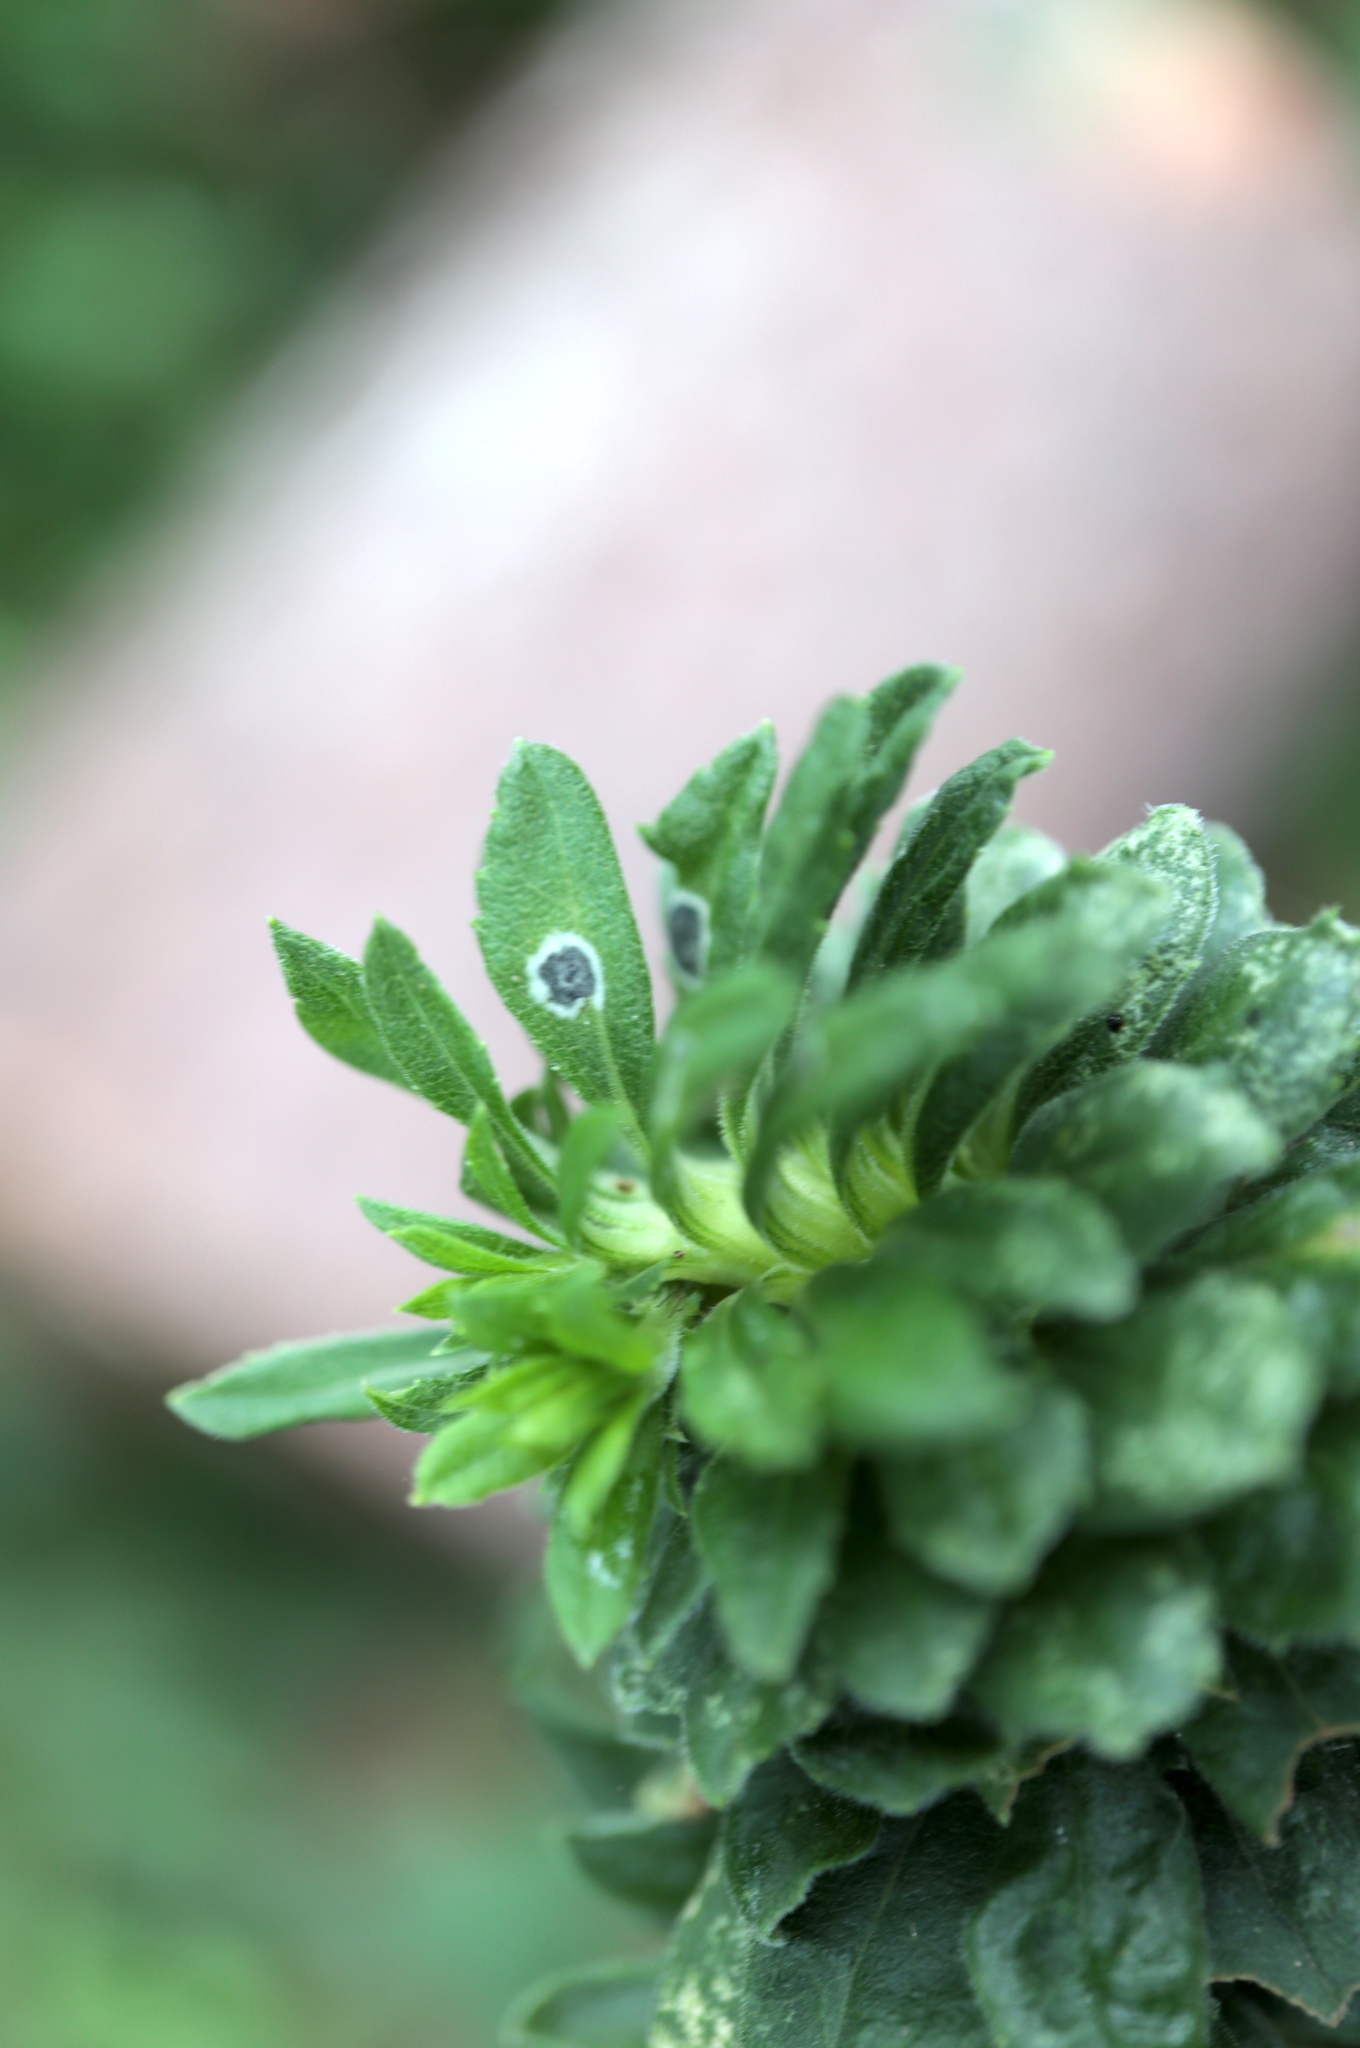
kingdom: Animalia
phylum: Arthropoda
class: Insecta
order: Diptera
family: Cecidomyiidae
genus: Asteromyia
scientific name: Asteromyia carbonifera
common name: Carbonifera goldenrod gall midge
